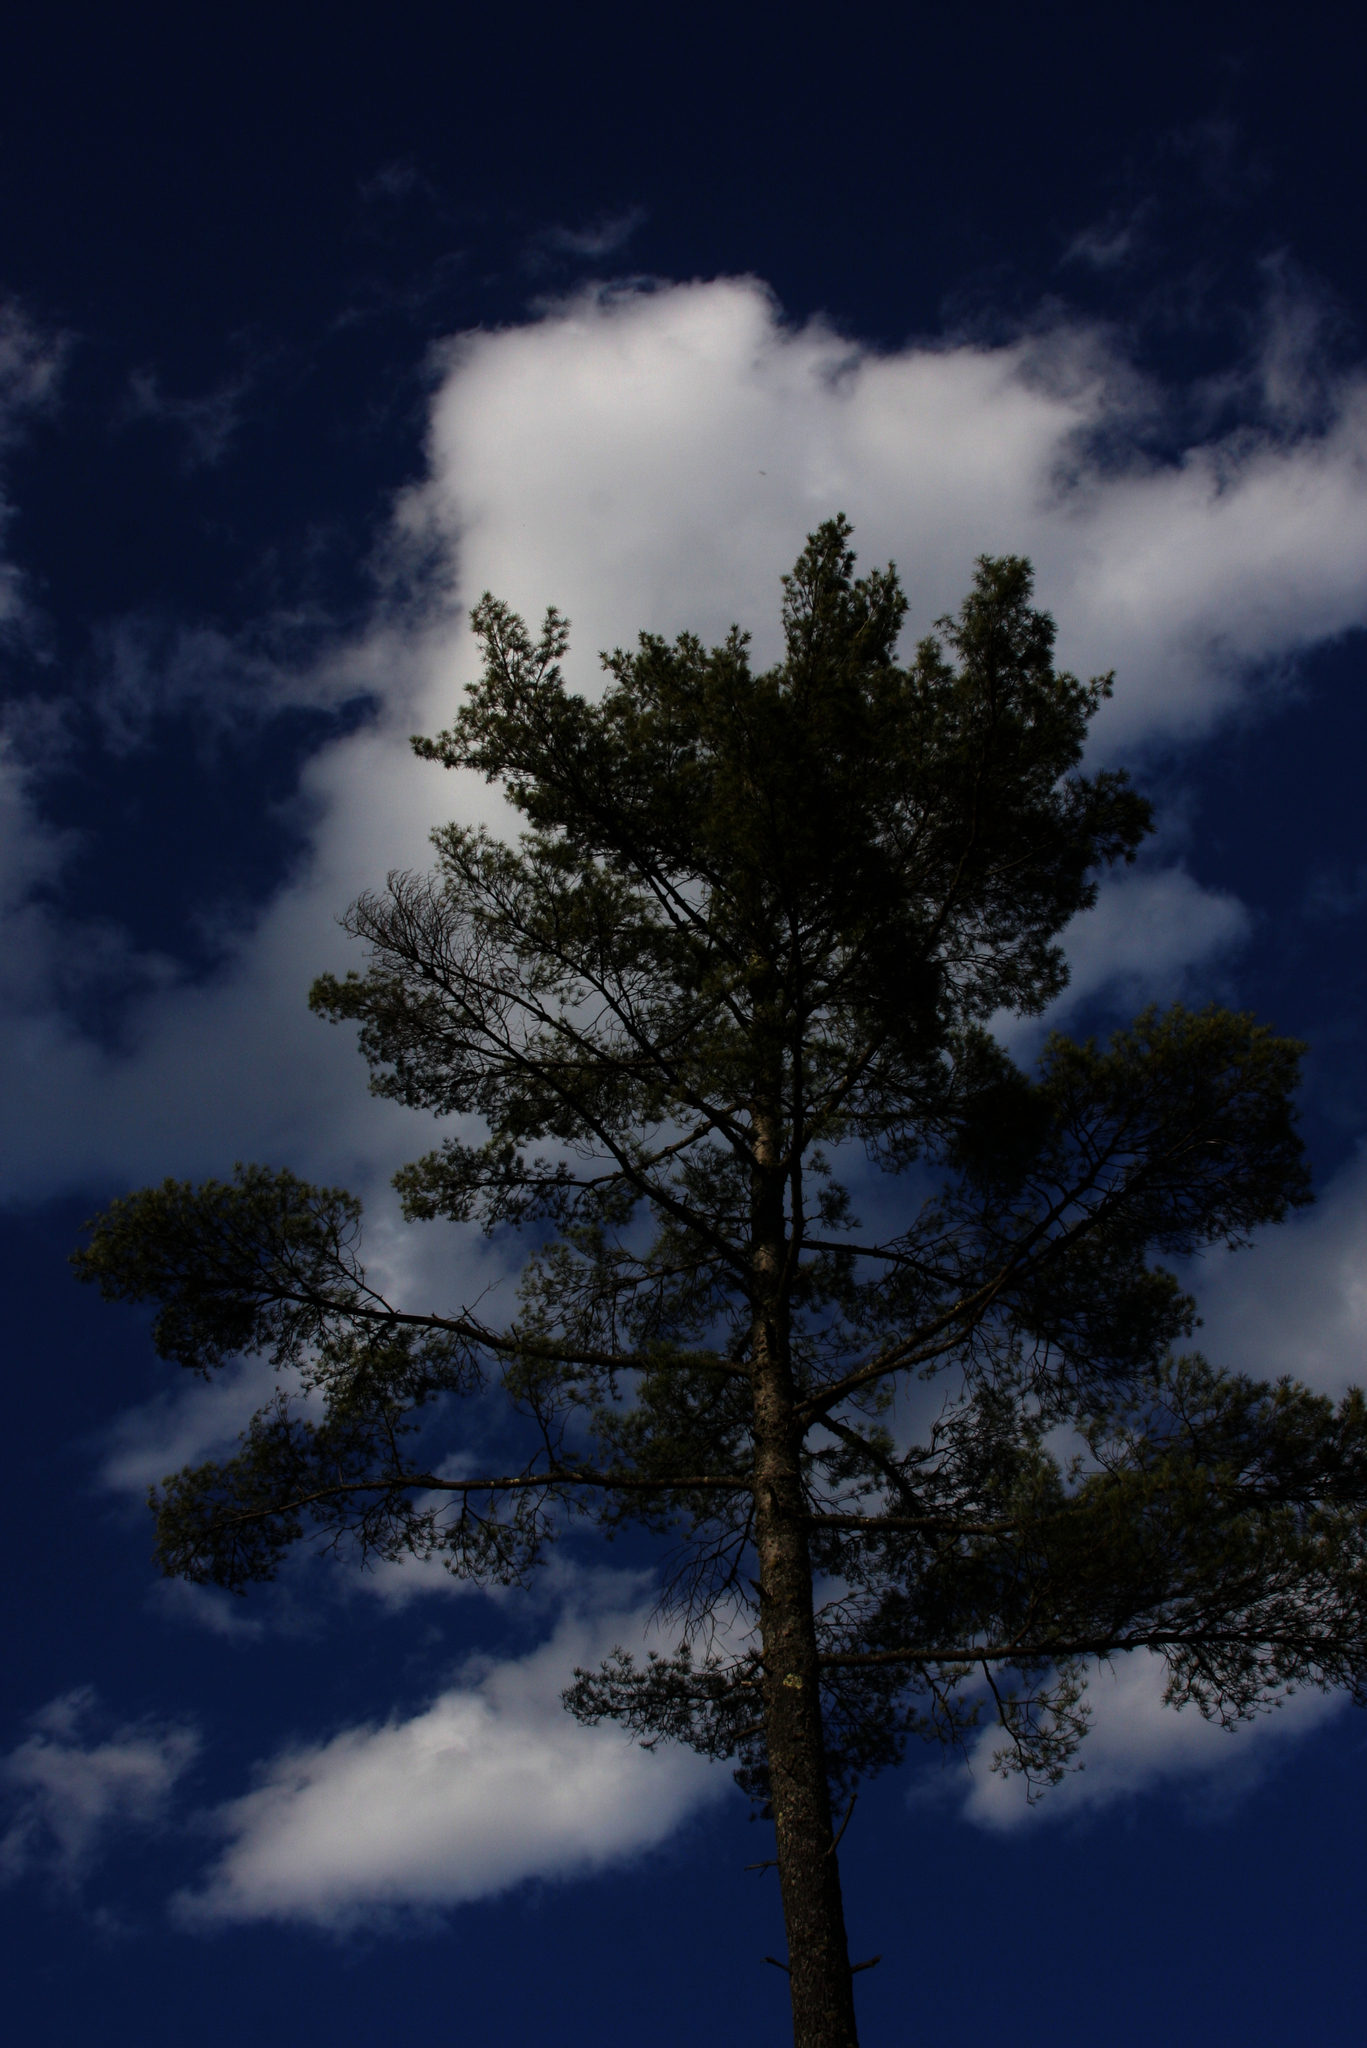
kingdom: Plantae
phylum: Tracheophyta
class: Pinopsida
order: Pinales
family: Pinaceae
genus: Pinus
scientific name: Pinus strobus
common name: Weymouth pine
